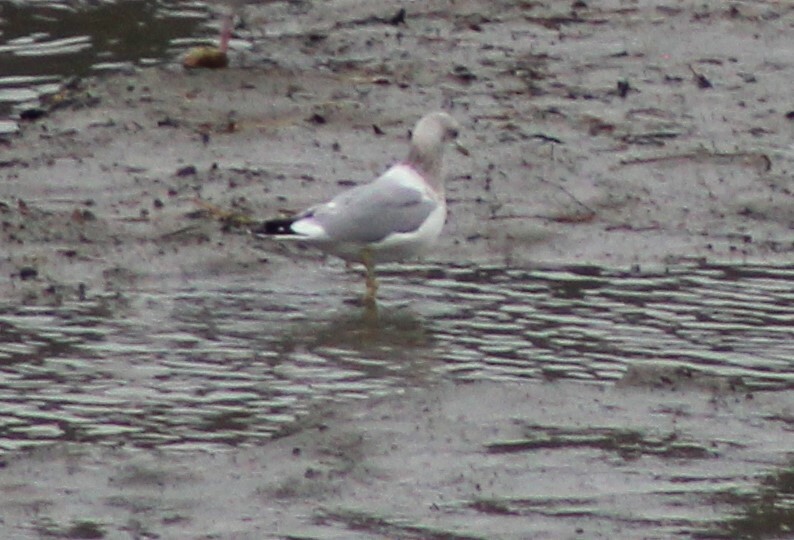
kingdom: Animalia
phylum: Chordata
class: Aves
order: Charadriiformes
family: Laridae
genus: Larus
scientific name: Larus brachyrhynchus
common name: Short-billed gull
